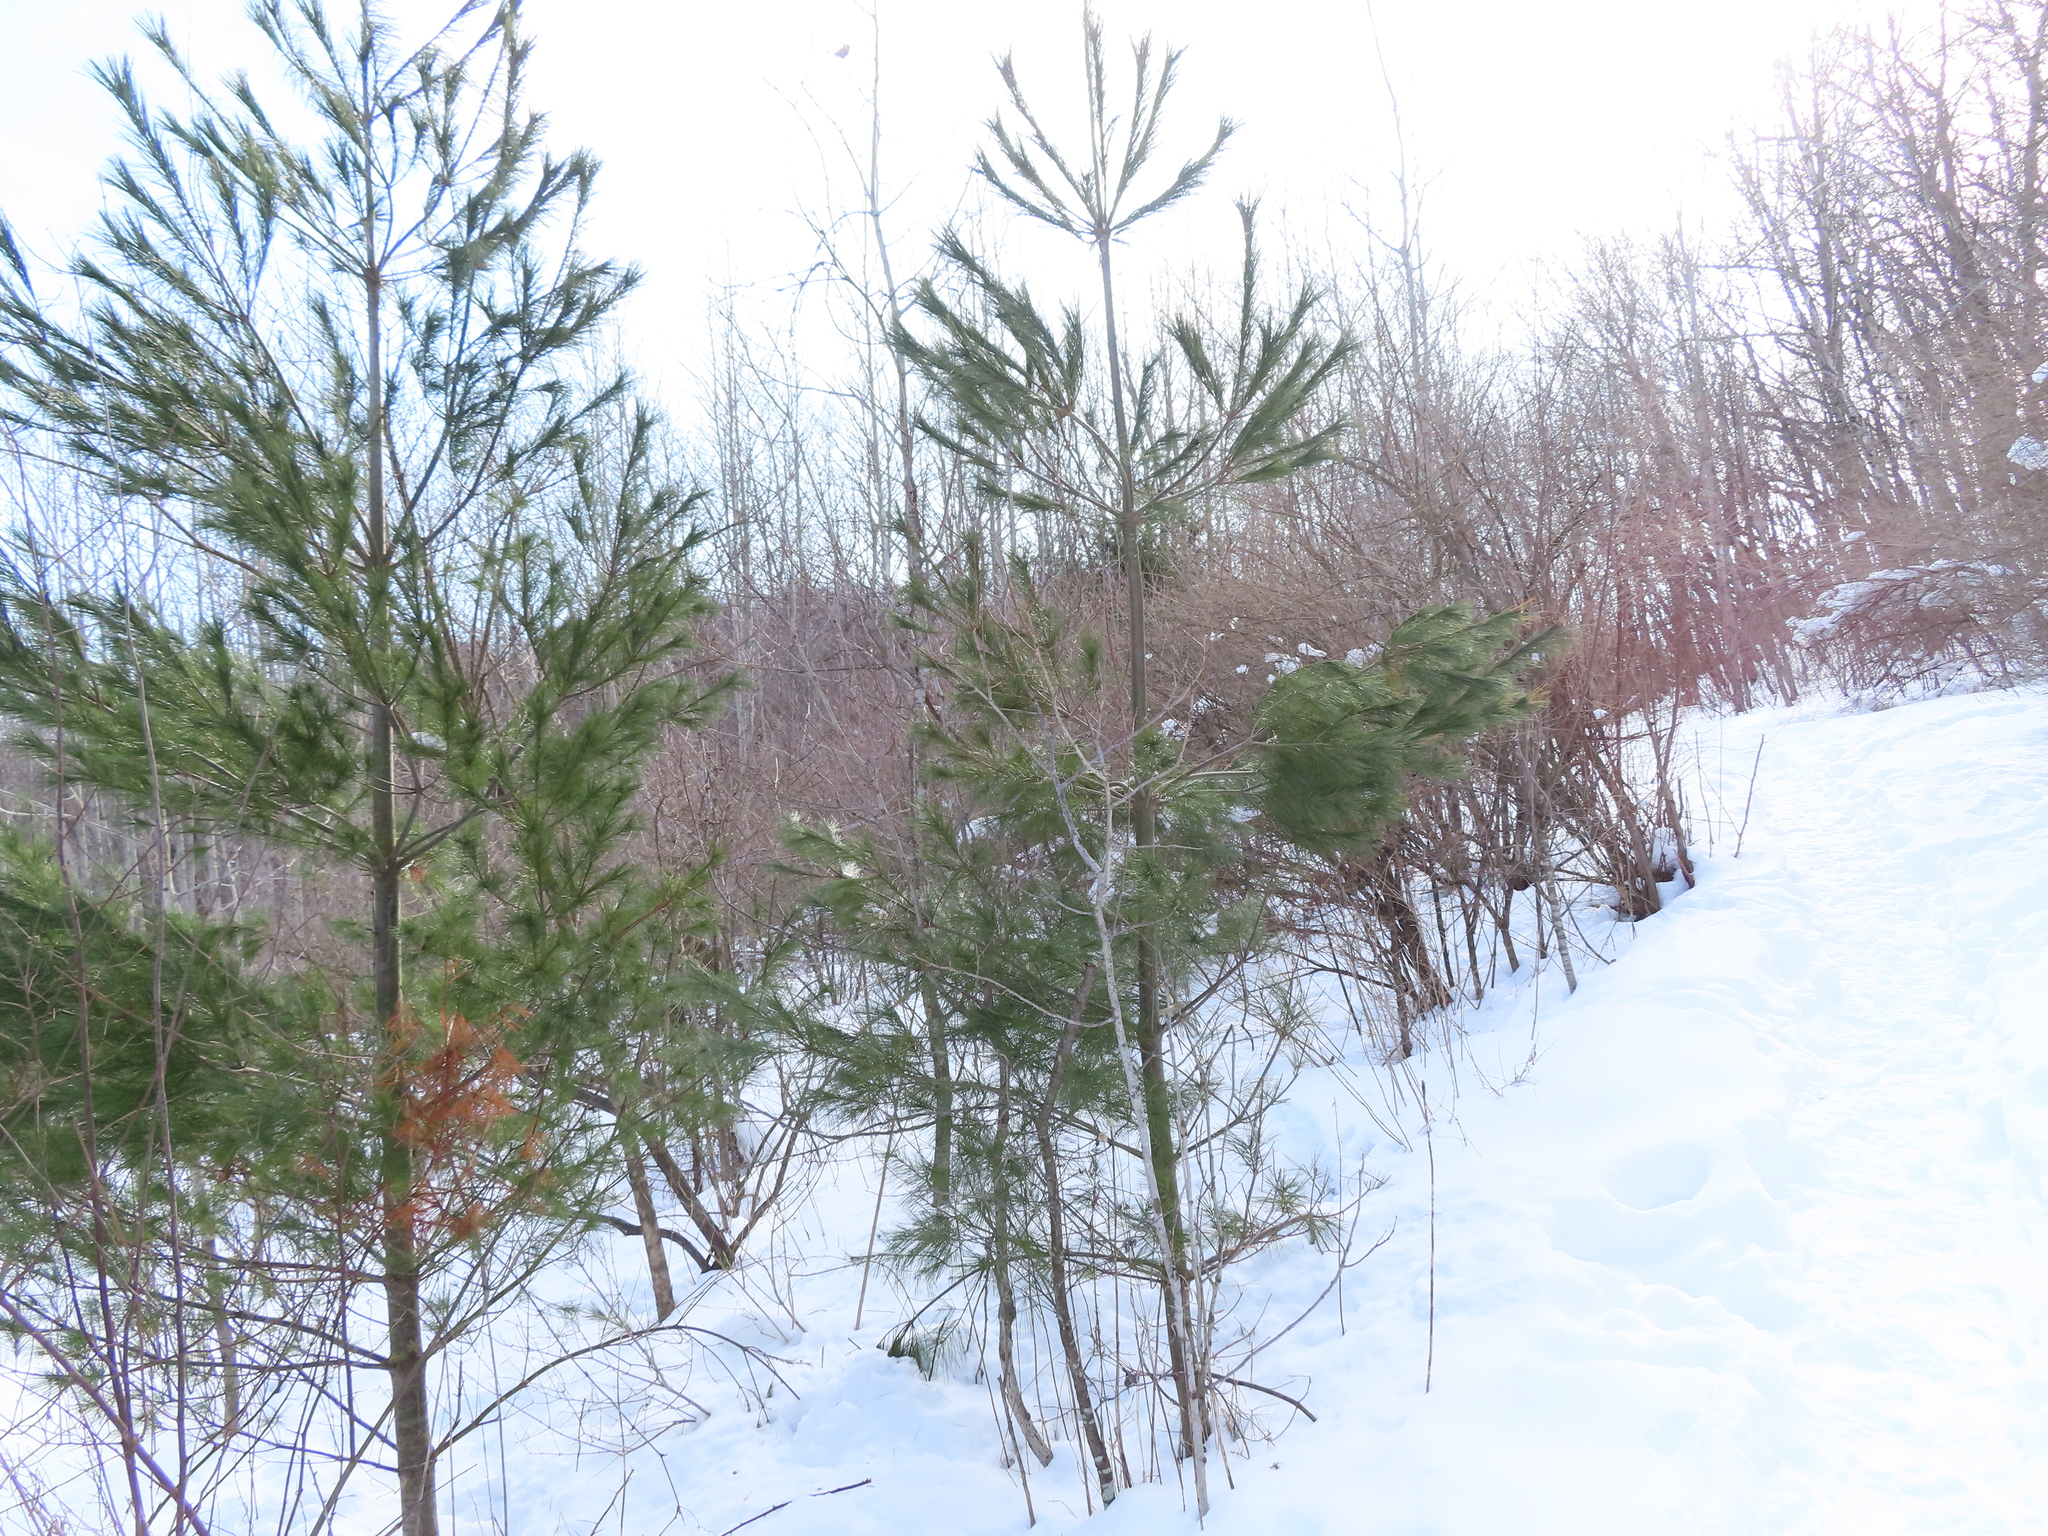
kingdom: Plantae
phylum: Tracheophyta
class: Pinopsida
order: Pinales
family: Pinaceae
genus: Pinus
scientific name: Pinus strobus
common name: Weymouth pine
